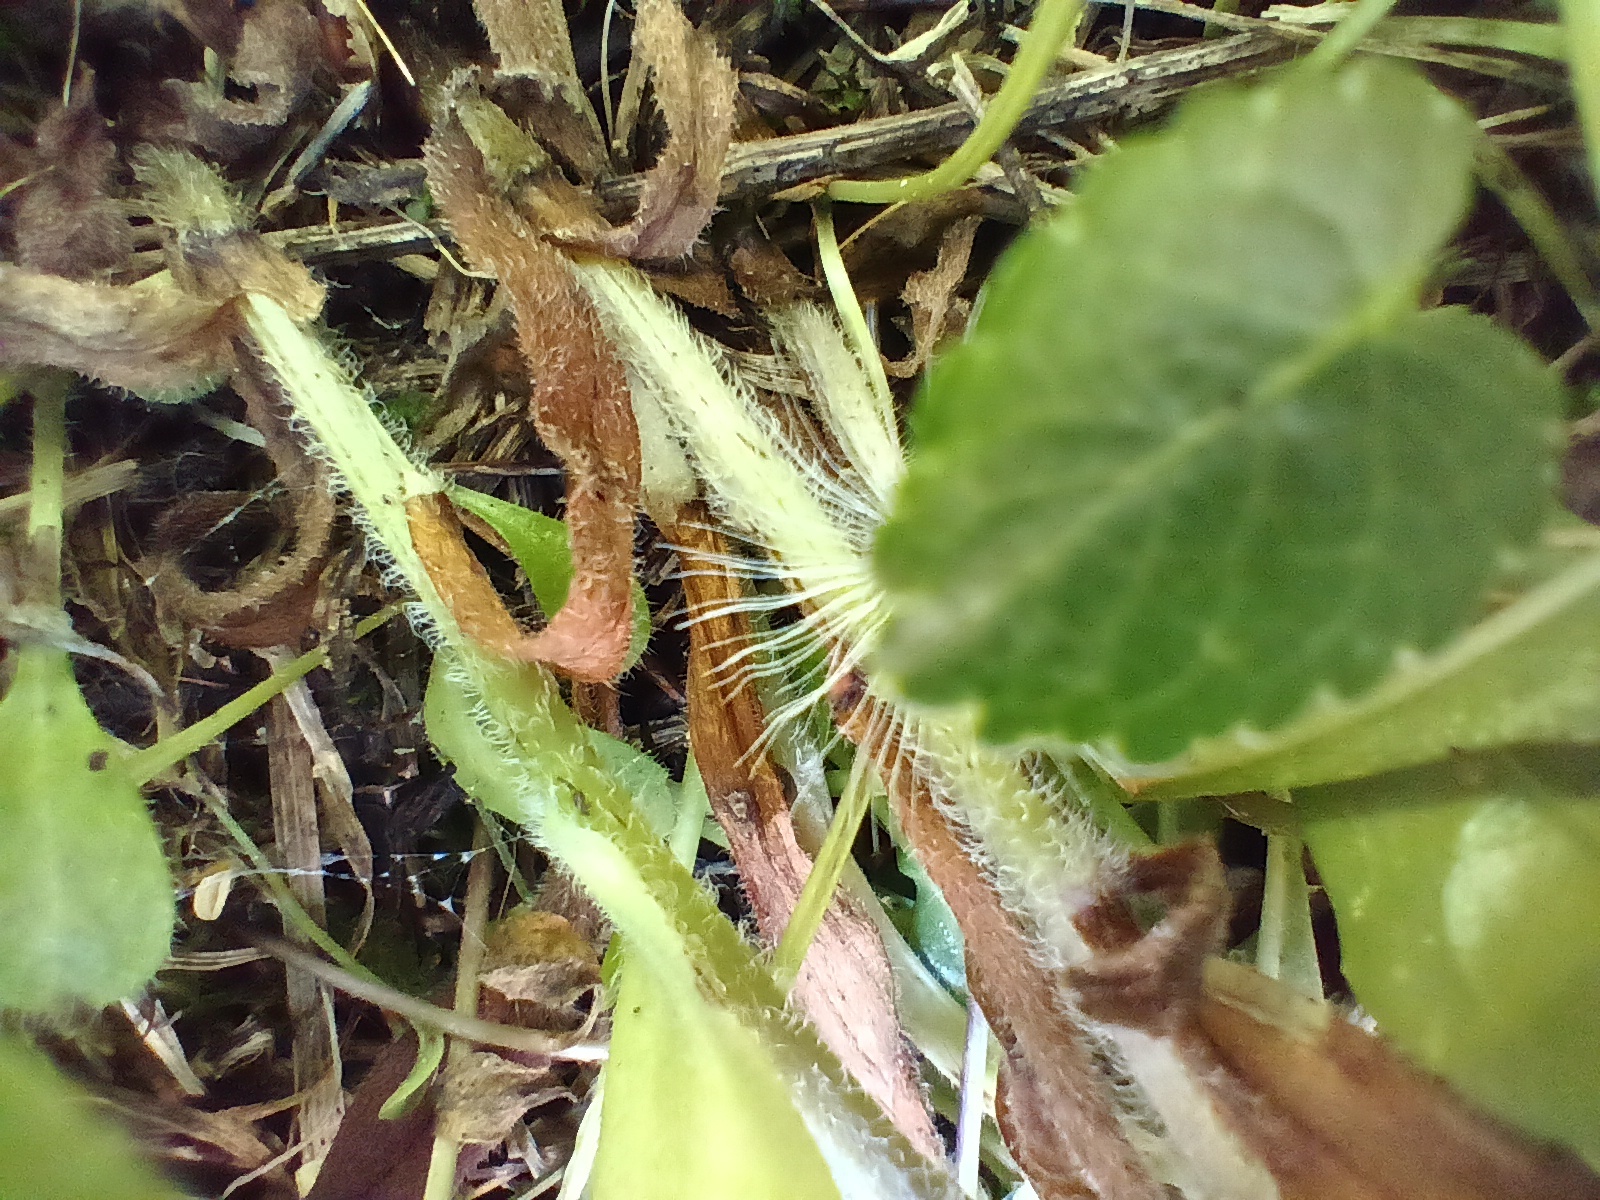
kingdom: Plantae
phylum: Tracheophyta
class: Magnoliopsida
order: Boraginales
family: Boraginaceae
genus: Myosotis
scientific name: Myosotis alpestris
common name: Alpine forget-me-not
